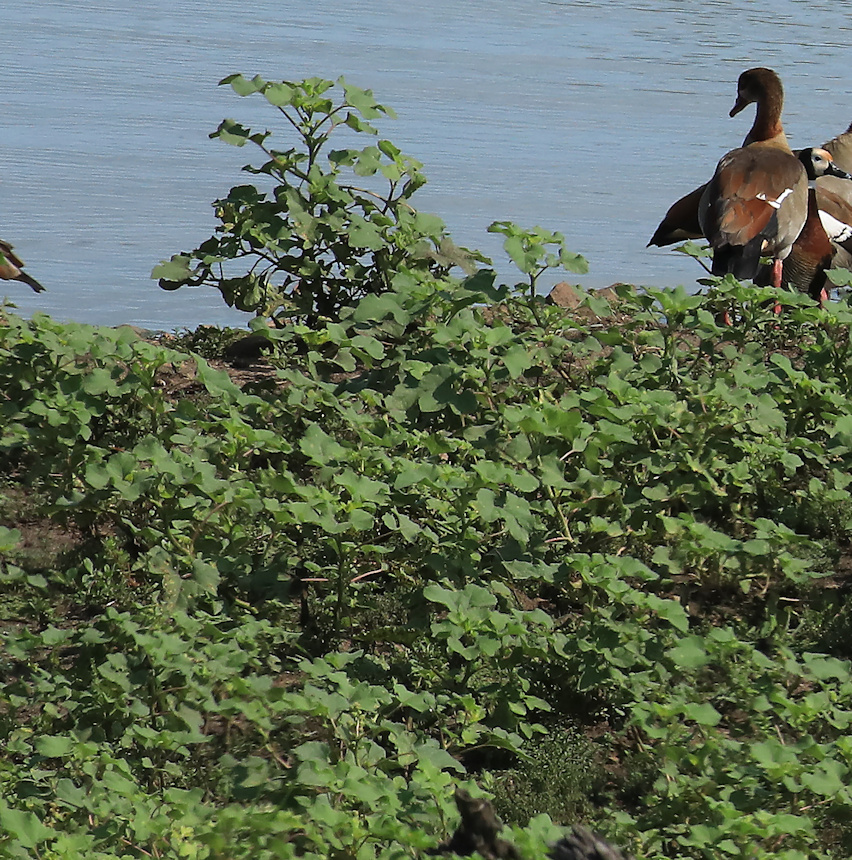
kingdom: Plantae
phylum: Tracheophyta
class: Magnoliopsida
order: Asterales
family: Asteraceae
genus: Xanthium
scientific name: Xanthium strumarium
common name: Rough cocklebur
